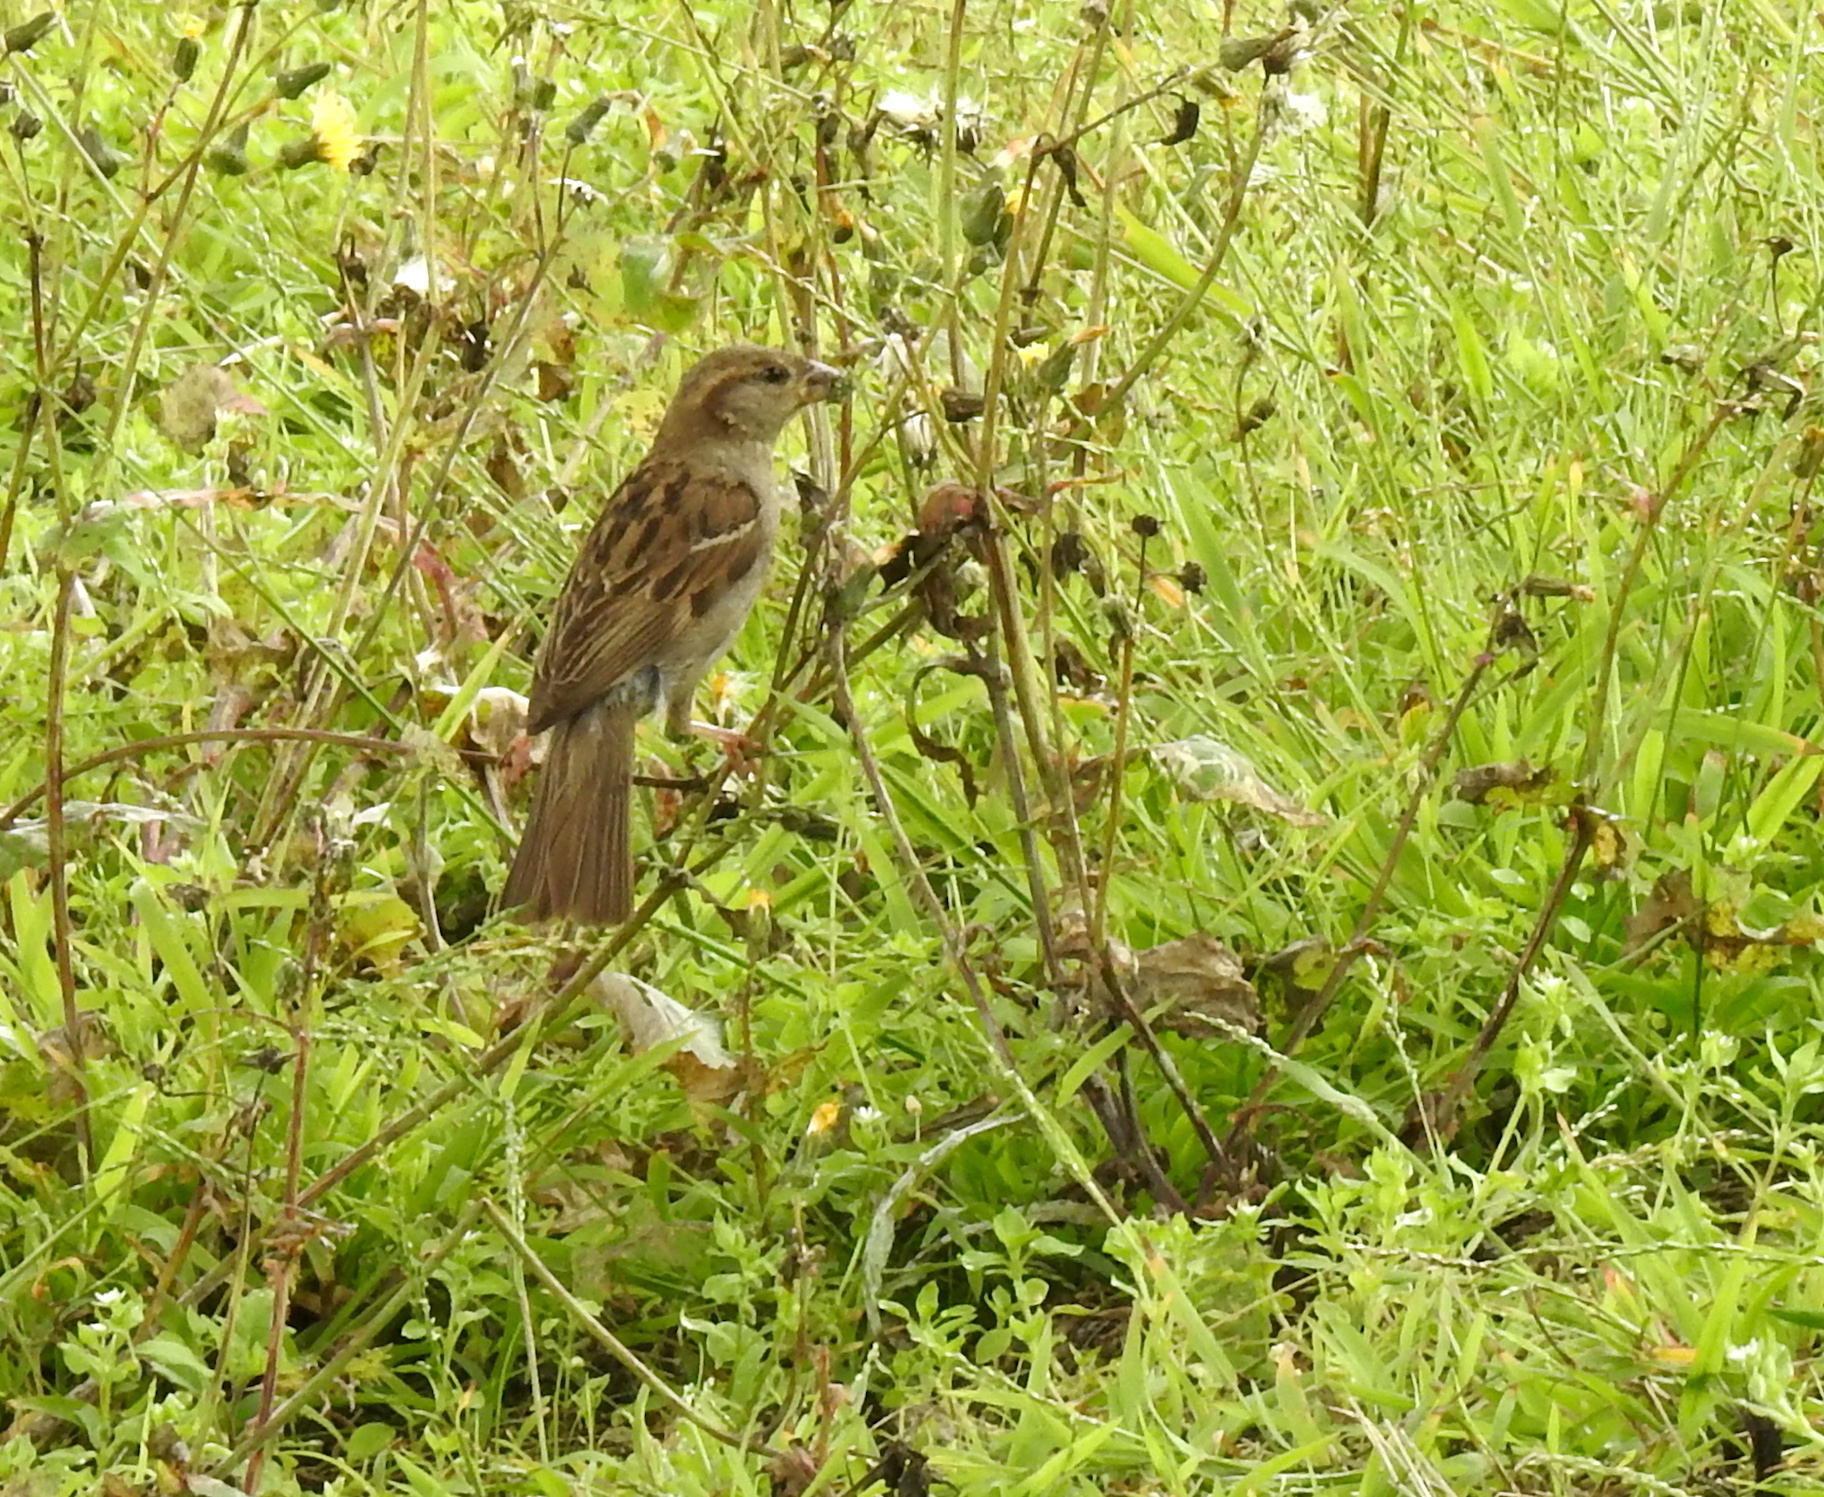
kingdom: Animalia
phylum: Chordata
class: Aves
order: Passeriformes
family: Passeridae
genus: Passer
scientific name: Passer domesticus
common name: House sparrow
